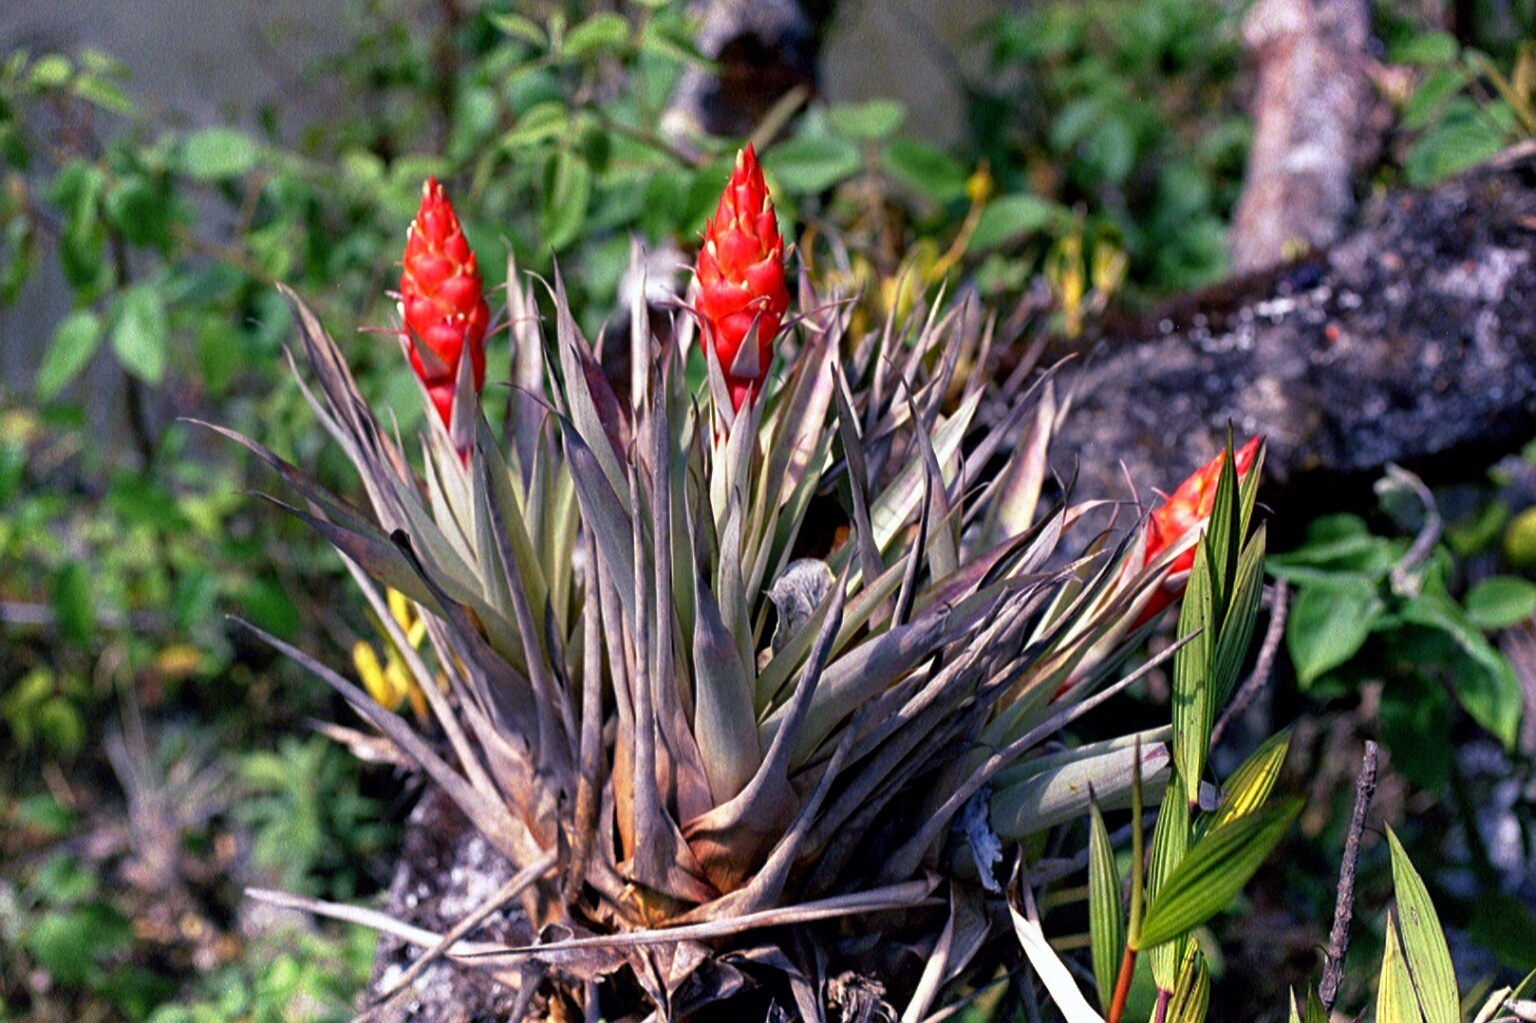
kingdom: Plantae
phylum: Tracheophyta
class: Liliopsida
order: Poales
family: Bromeliaceae
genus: Tillandsia
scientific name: Tillandsia turneri
